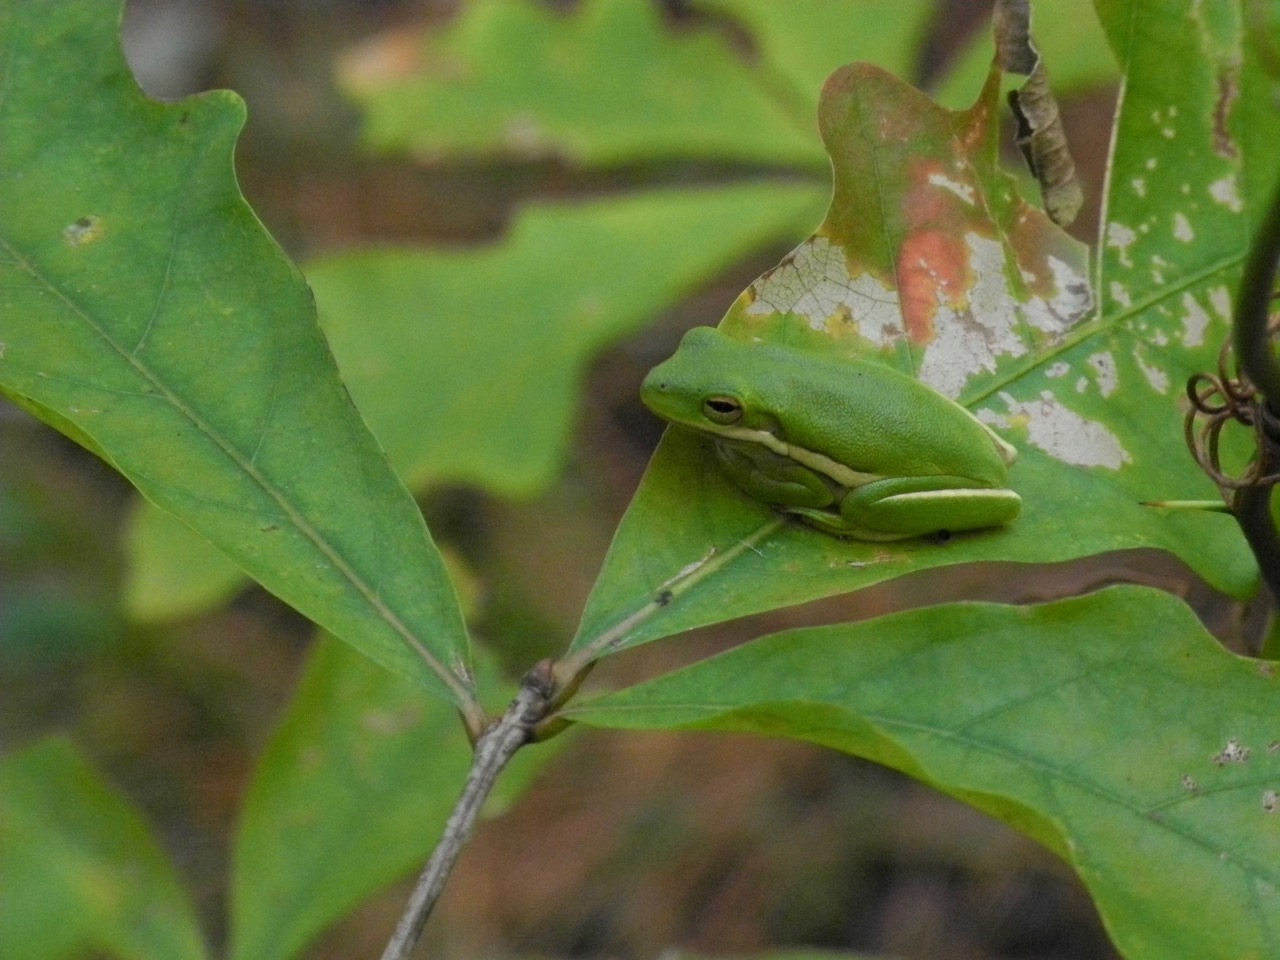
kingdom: Animalia
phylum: Chordata
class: Amphibia
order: Anura
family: Hylidae
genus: Dryophytes
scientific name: Dryophytes cinereus
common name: Green treefrog
